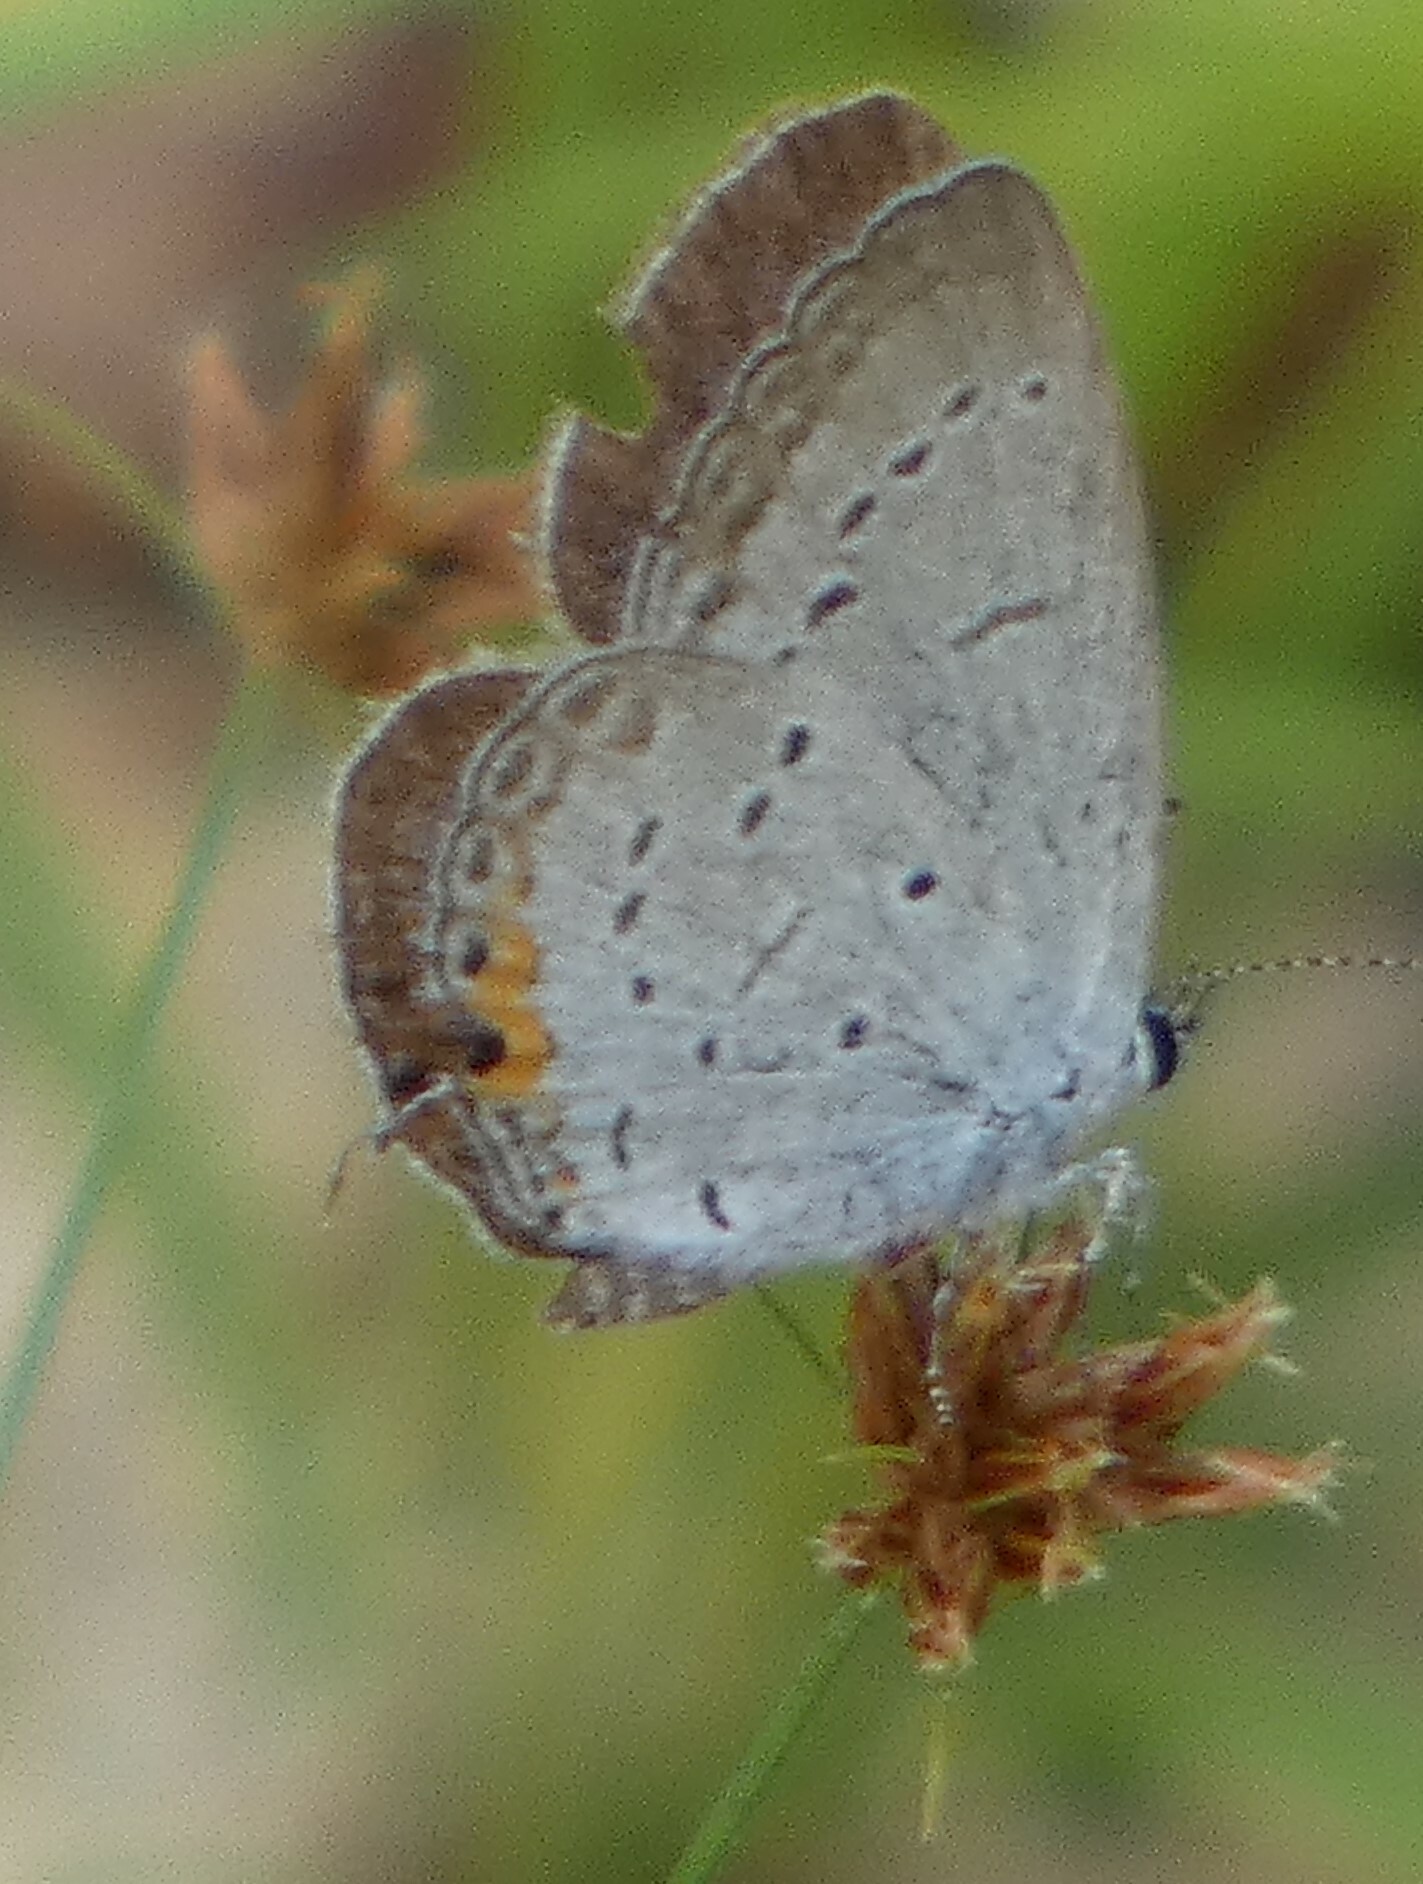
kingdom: Animalia
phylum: Arthropoda
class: Insecta
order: Lepidoptera
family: Lycaenidae
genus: Elkalyce
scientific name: Elkalyce comyntas
